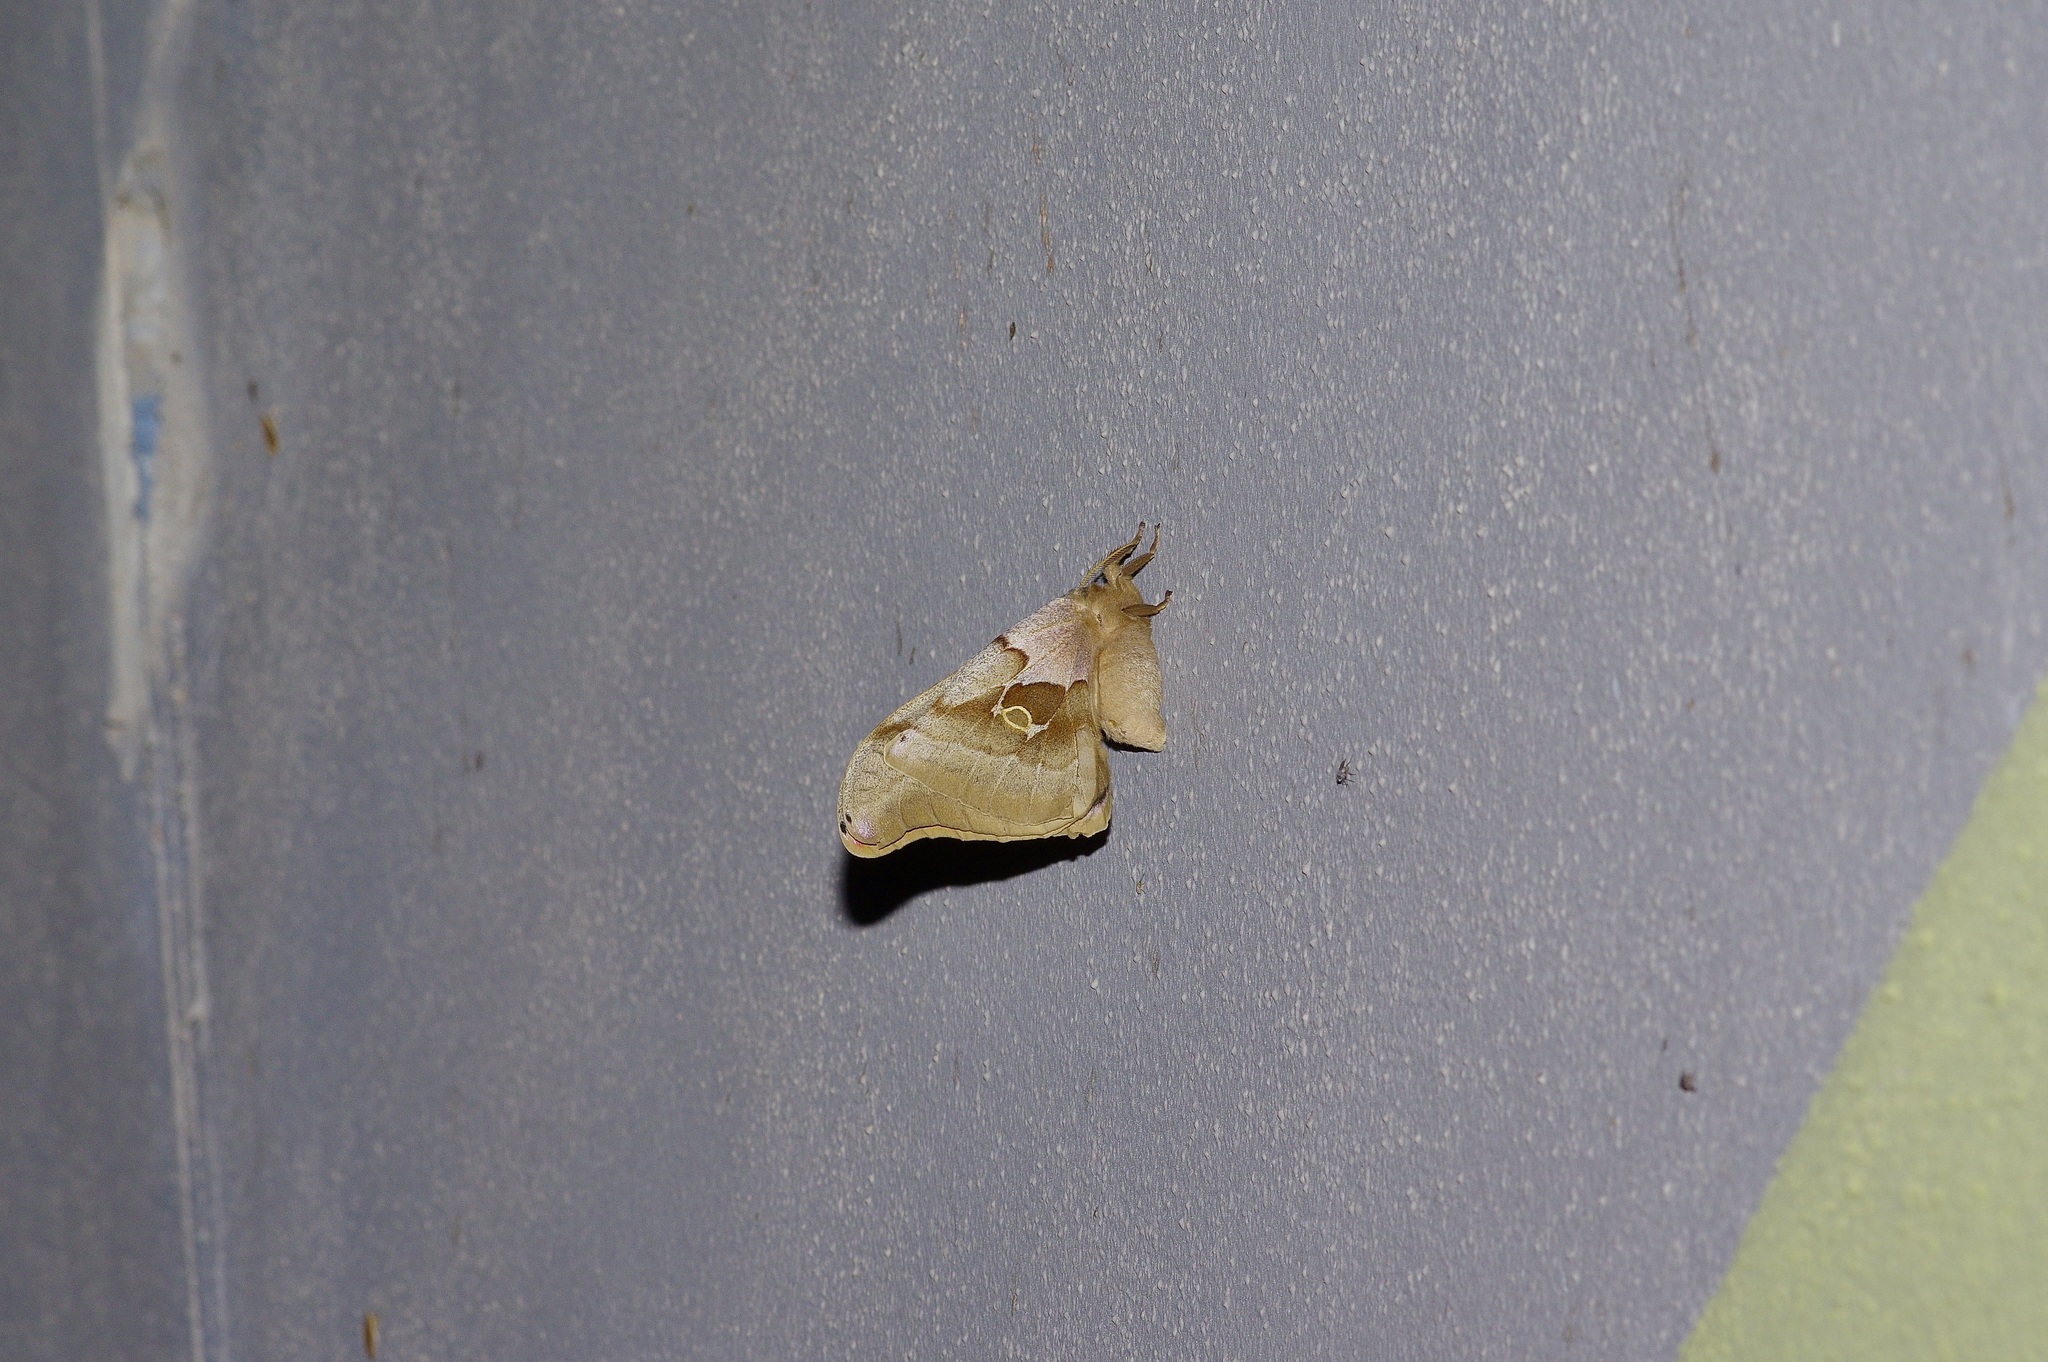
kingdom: Animalia
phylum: Arthropoda
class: Insecta
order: Lepidoptera
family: Saturniidae
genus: Antheraea
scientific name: Antheraea polyphemus
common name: Polyphemus moth
